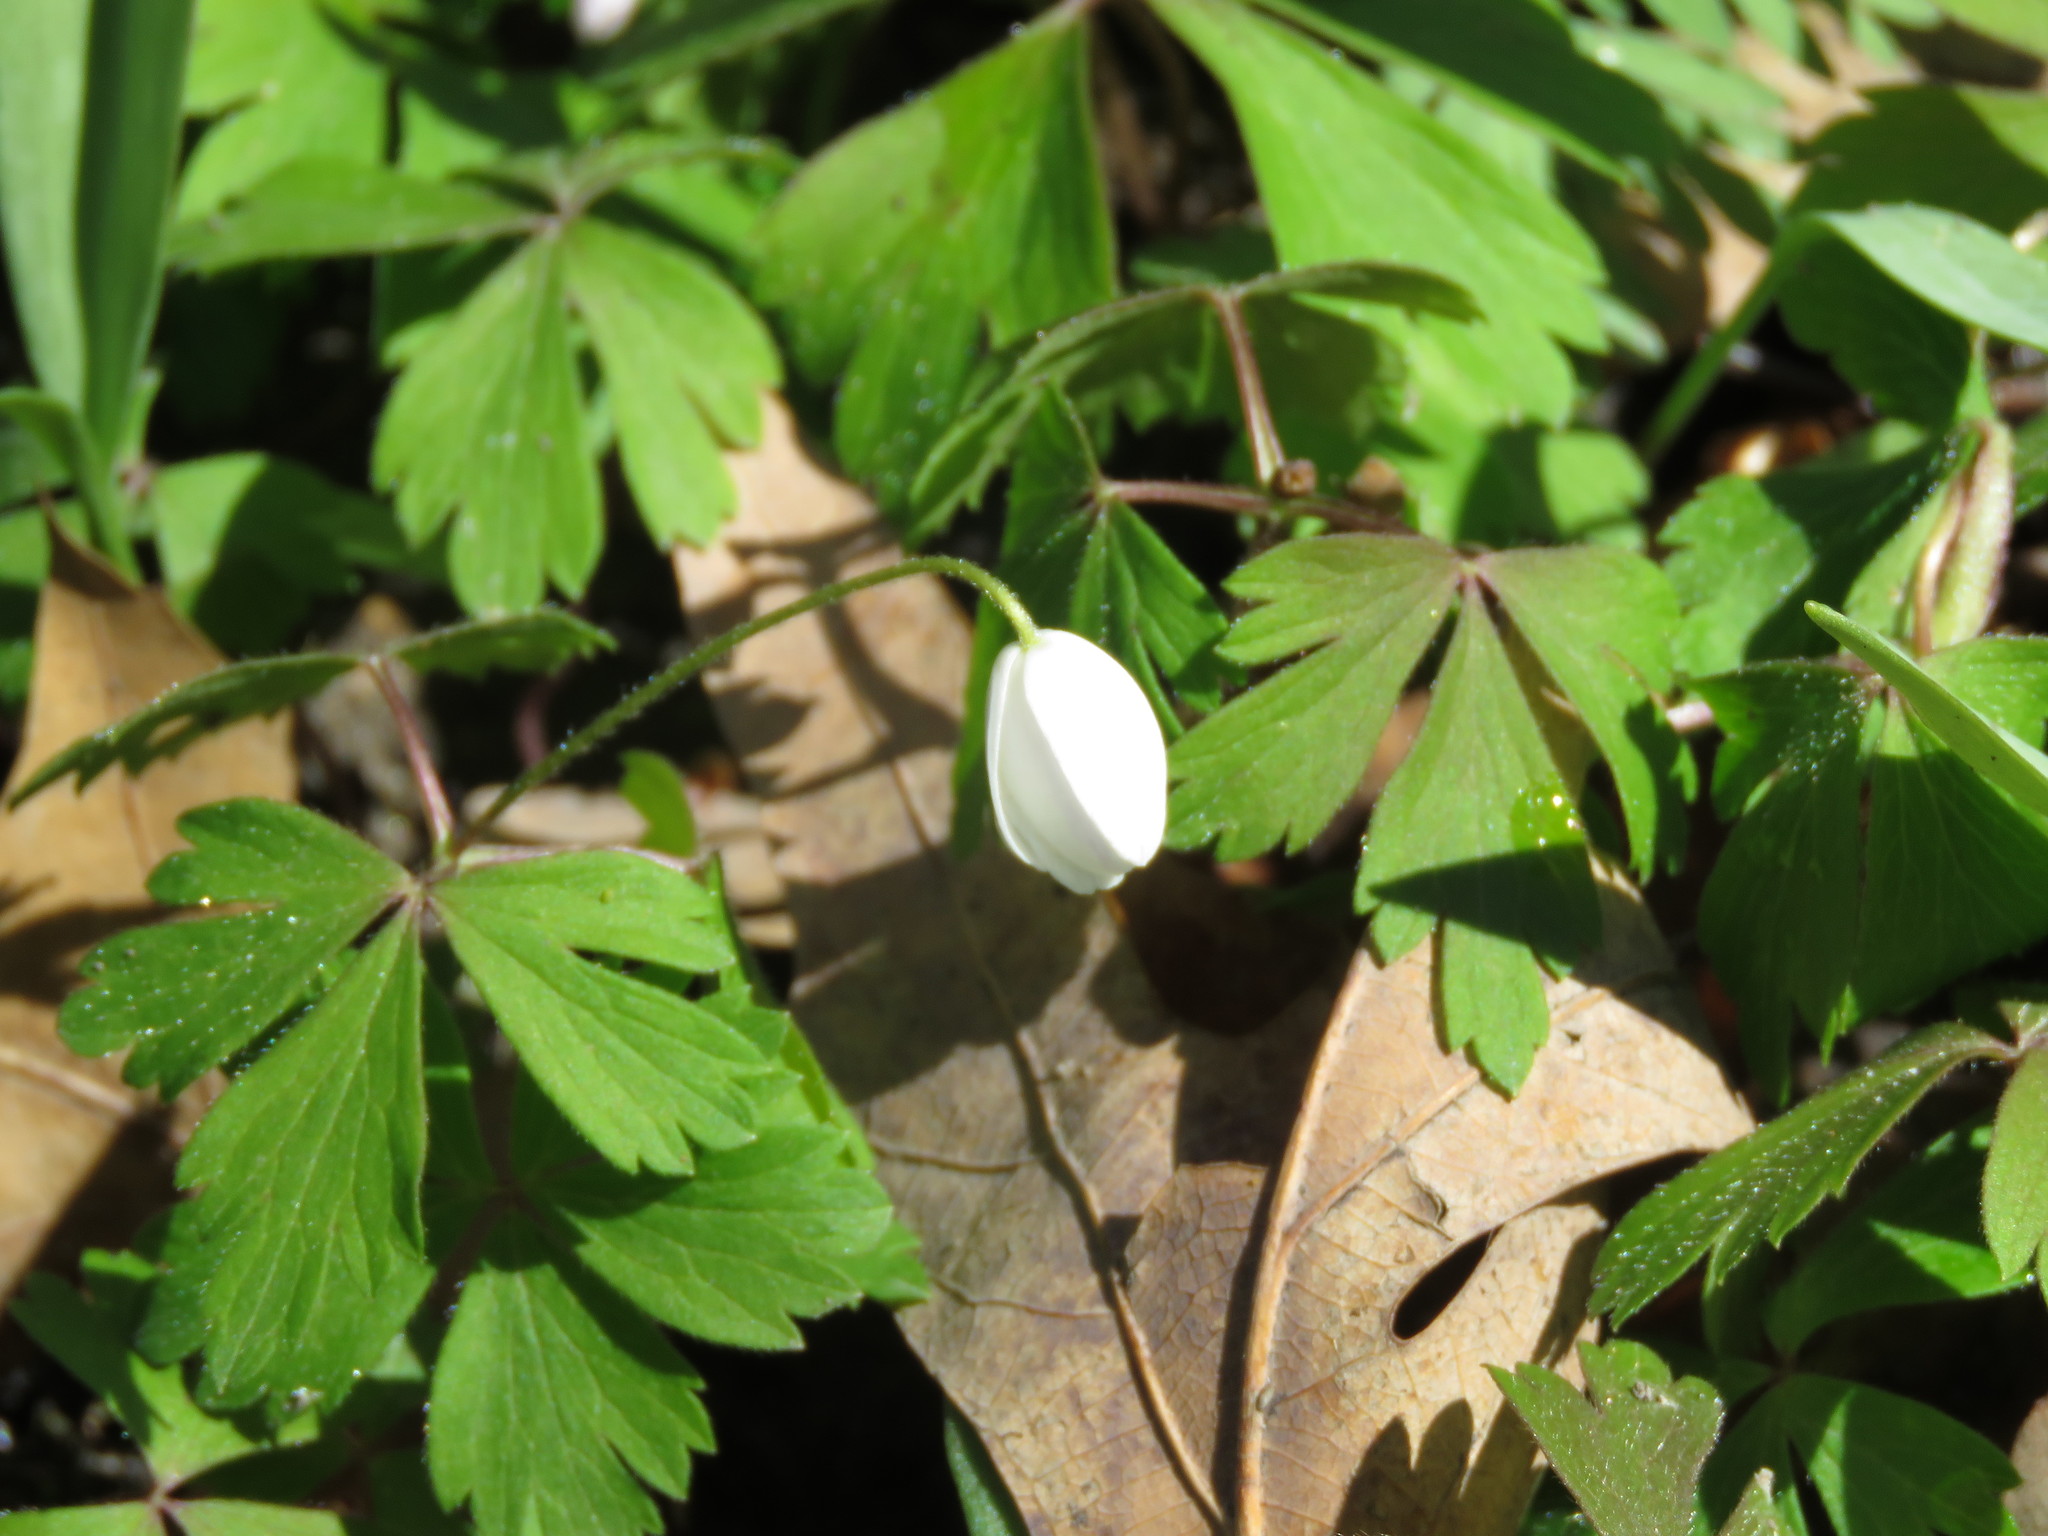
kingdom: Plantae
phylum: Tracheophyta
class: Magnoliopsida
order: Ranunculales
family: Ranunculaceae
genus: Anemone
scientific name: Anemone quinquefolia
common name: Wood anemone
